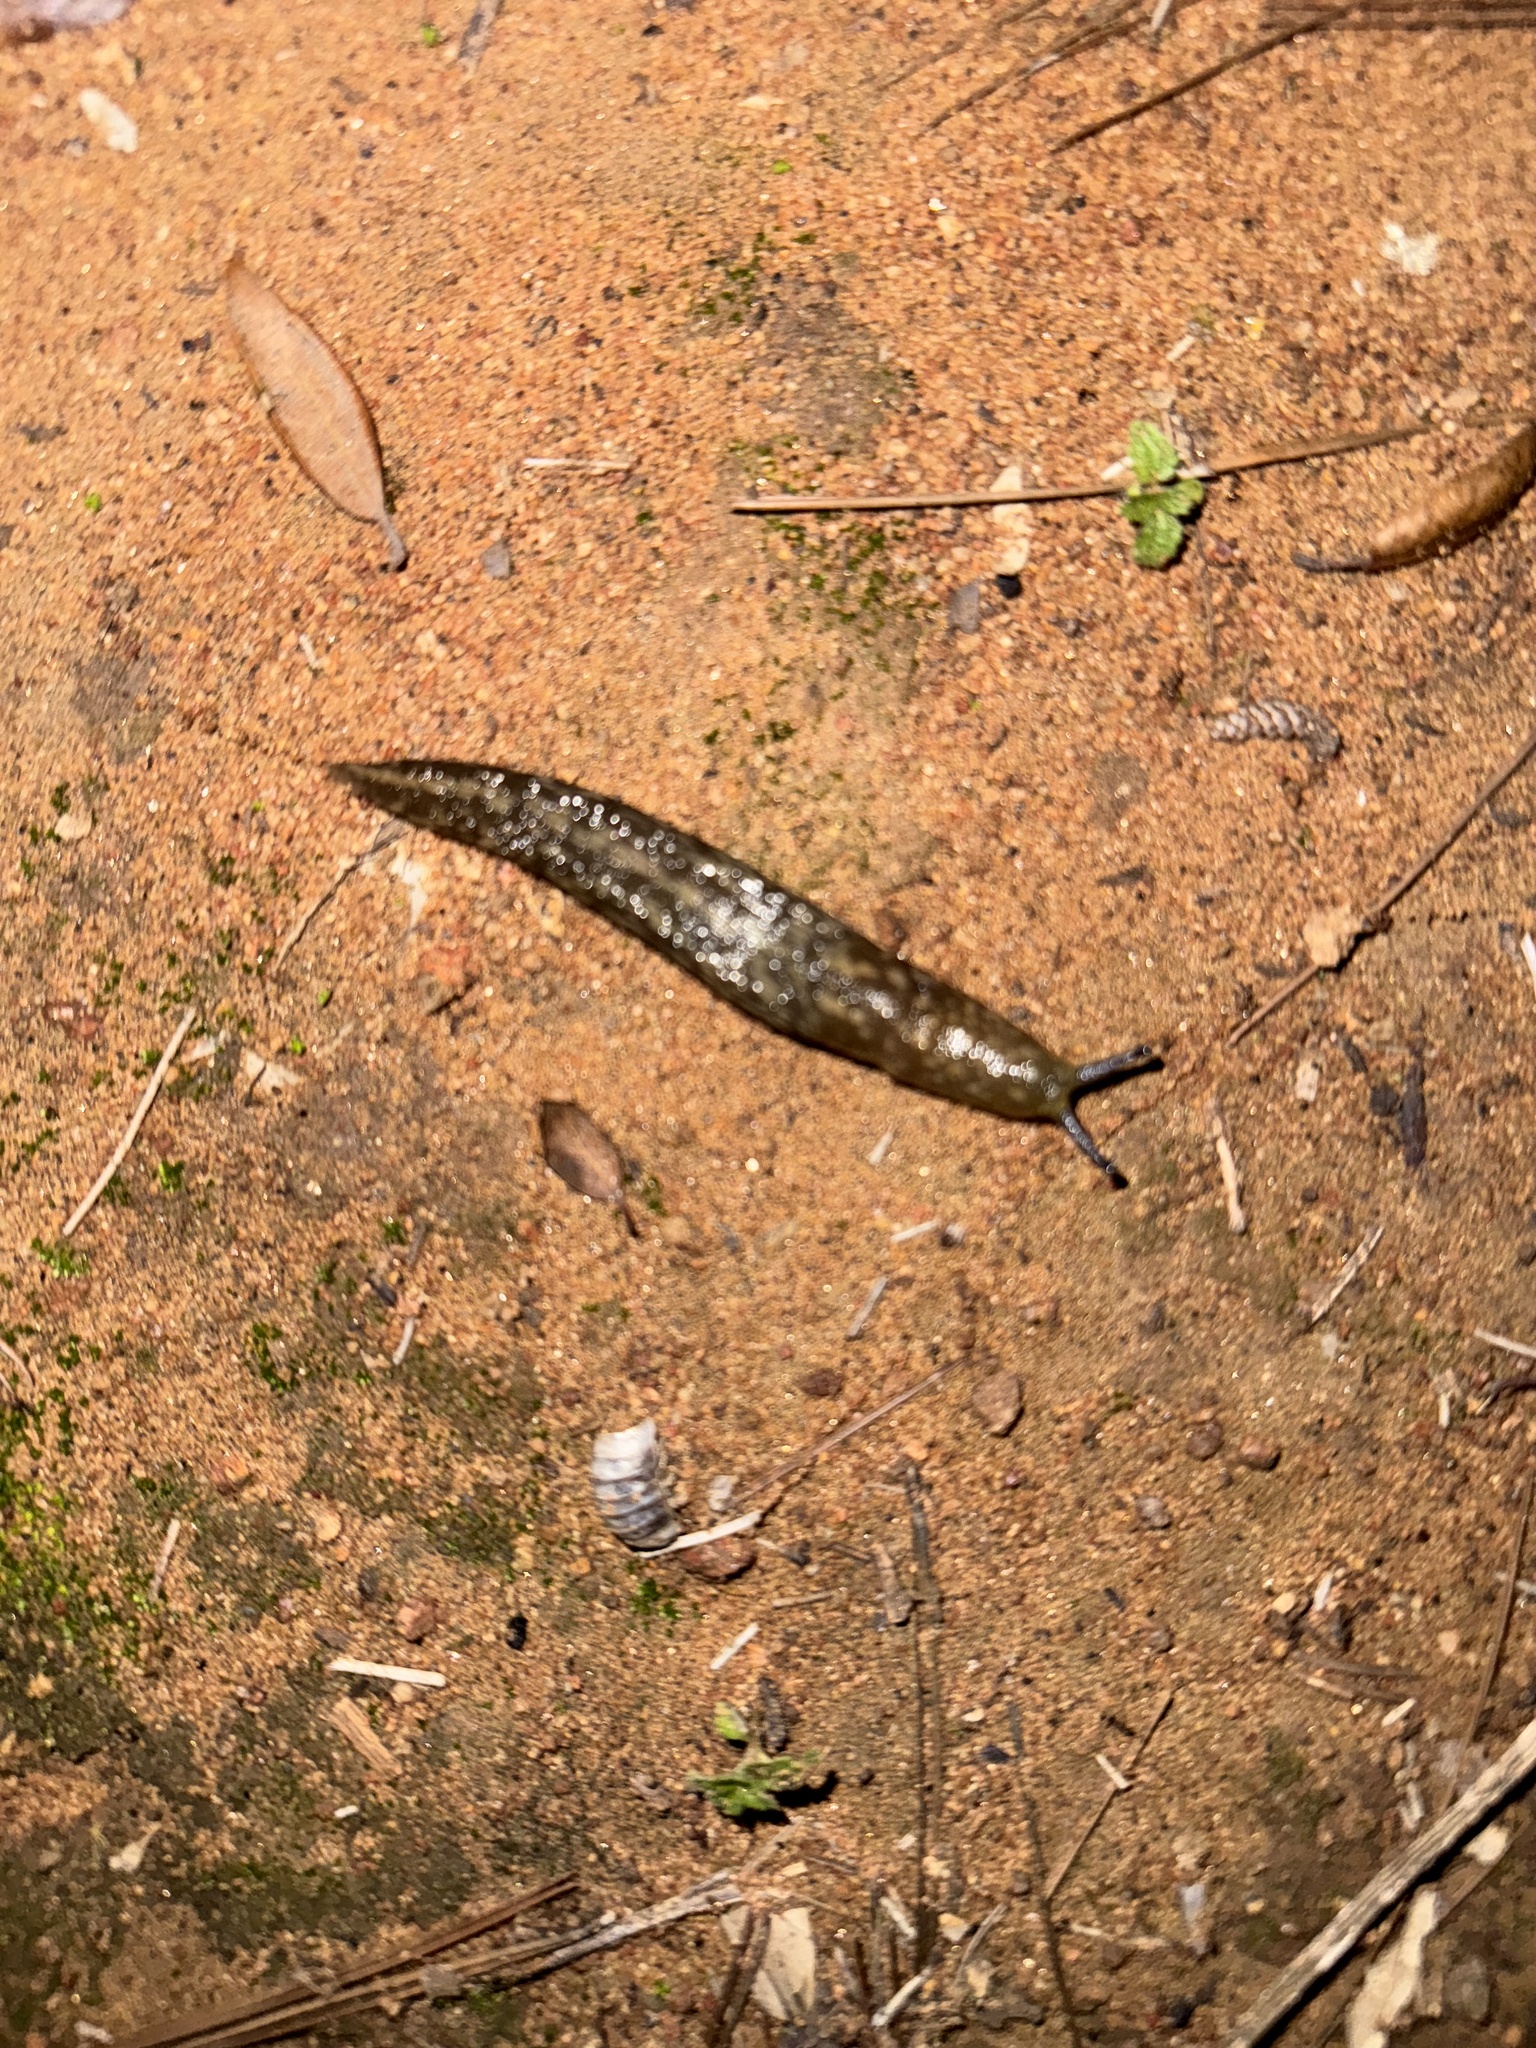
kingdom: Animalia
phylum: Mollusca
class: Gastropoda
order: Stylommatophora
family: Limacidae
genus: Limacus
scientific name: Limacus flavus
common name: Yellow gardenslug
